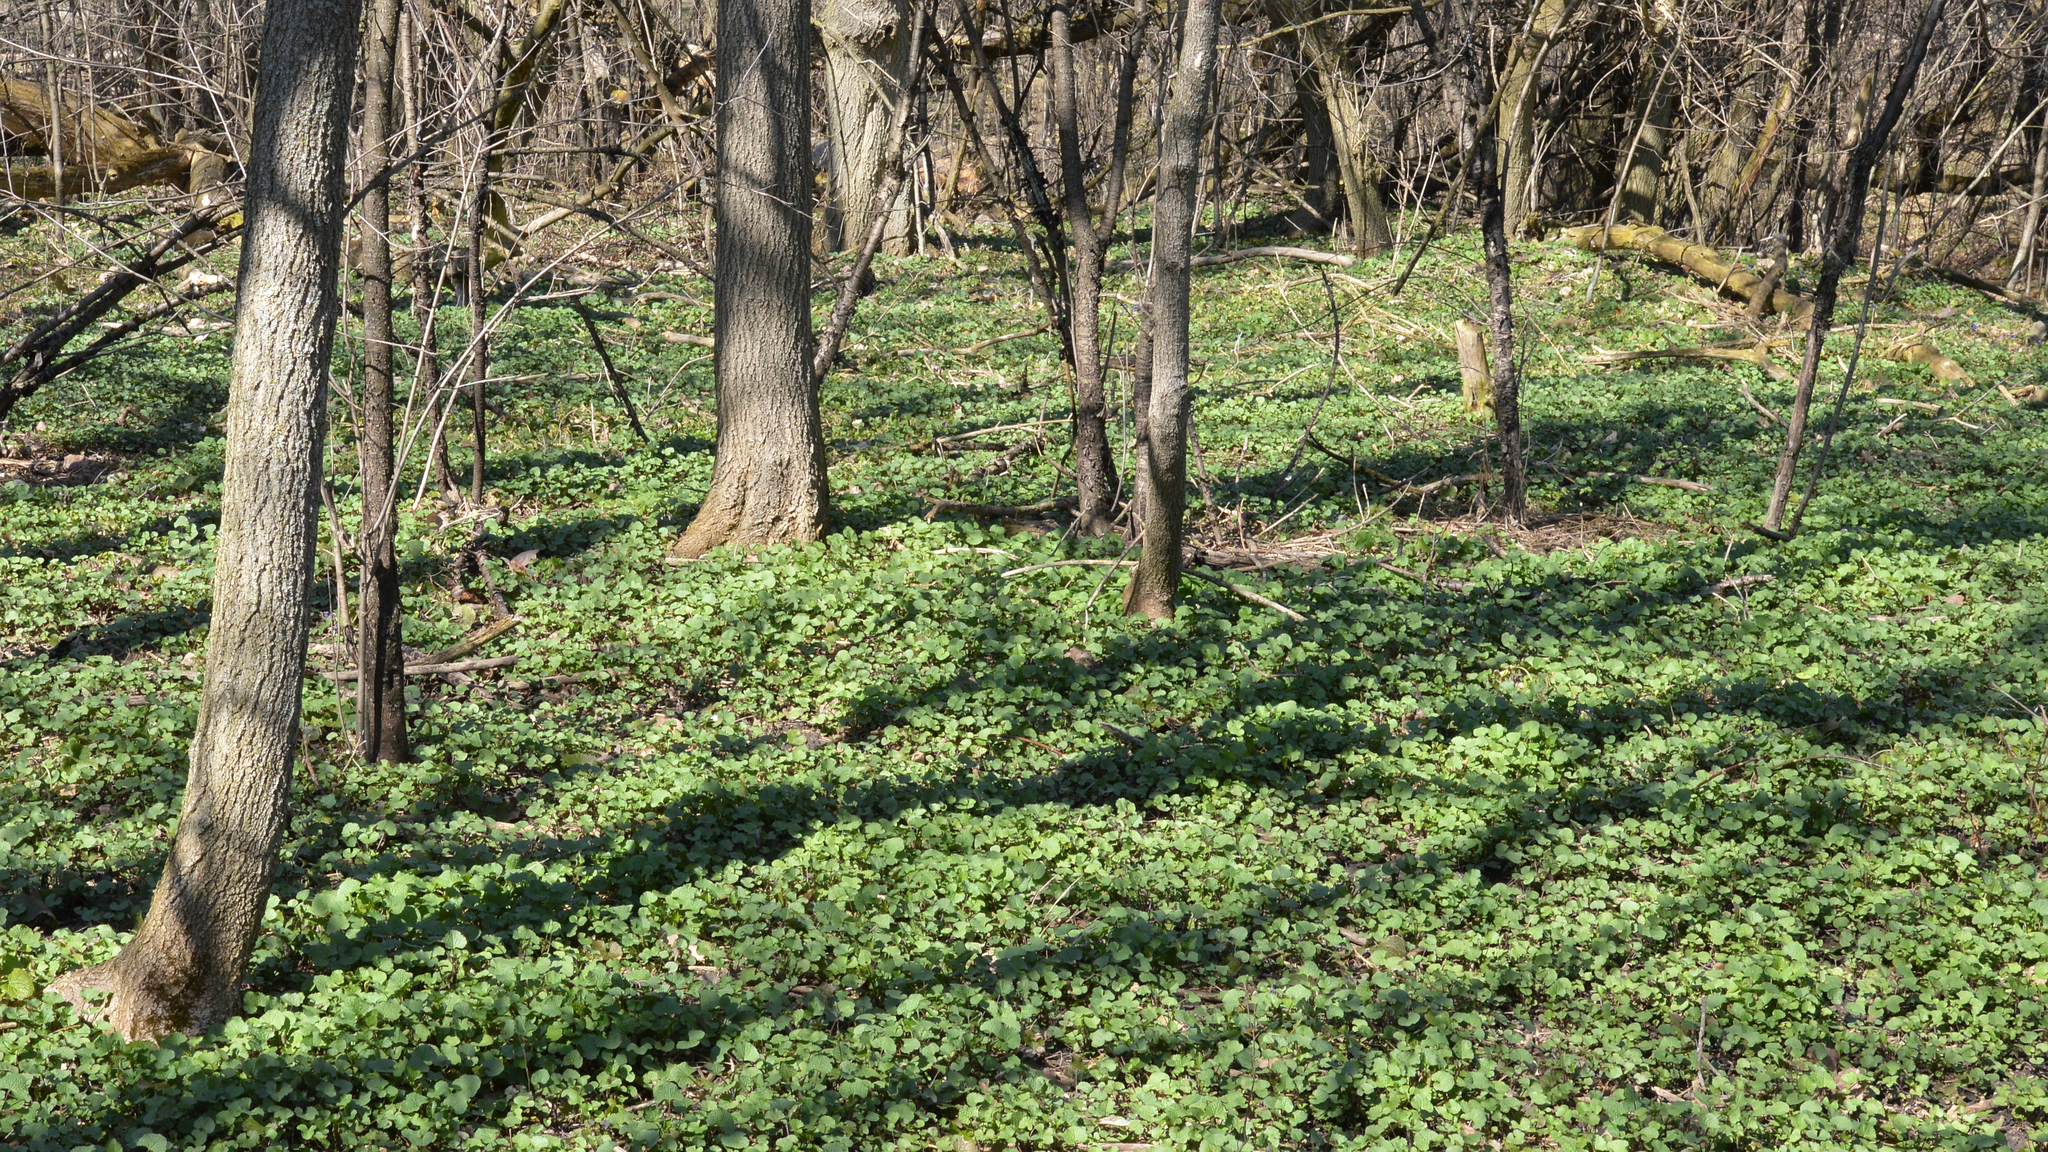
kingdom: Plantae
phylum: Tracheophyta
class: Magnoliopsida
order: Brassicales
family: Brassicaceae
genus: Alliaria
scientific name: Alliaria petiolata
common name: Garlic mustard
